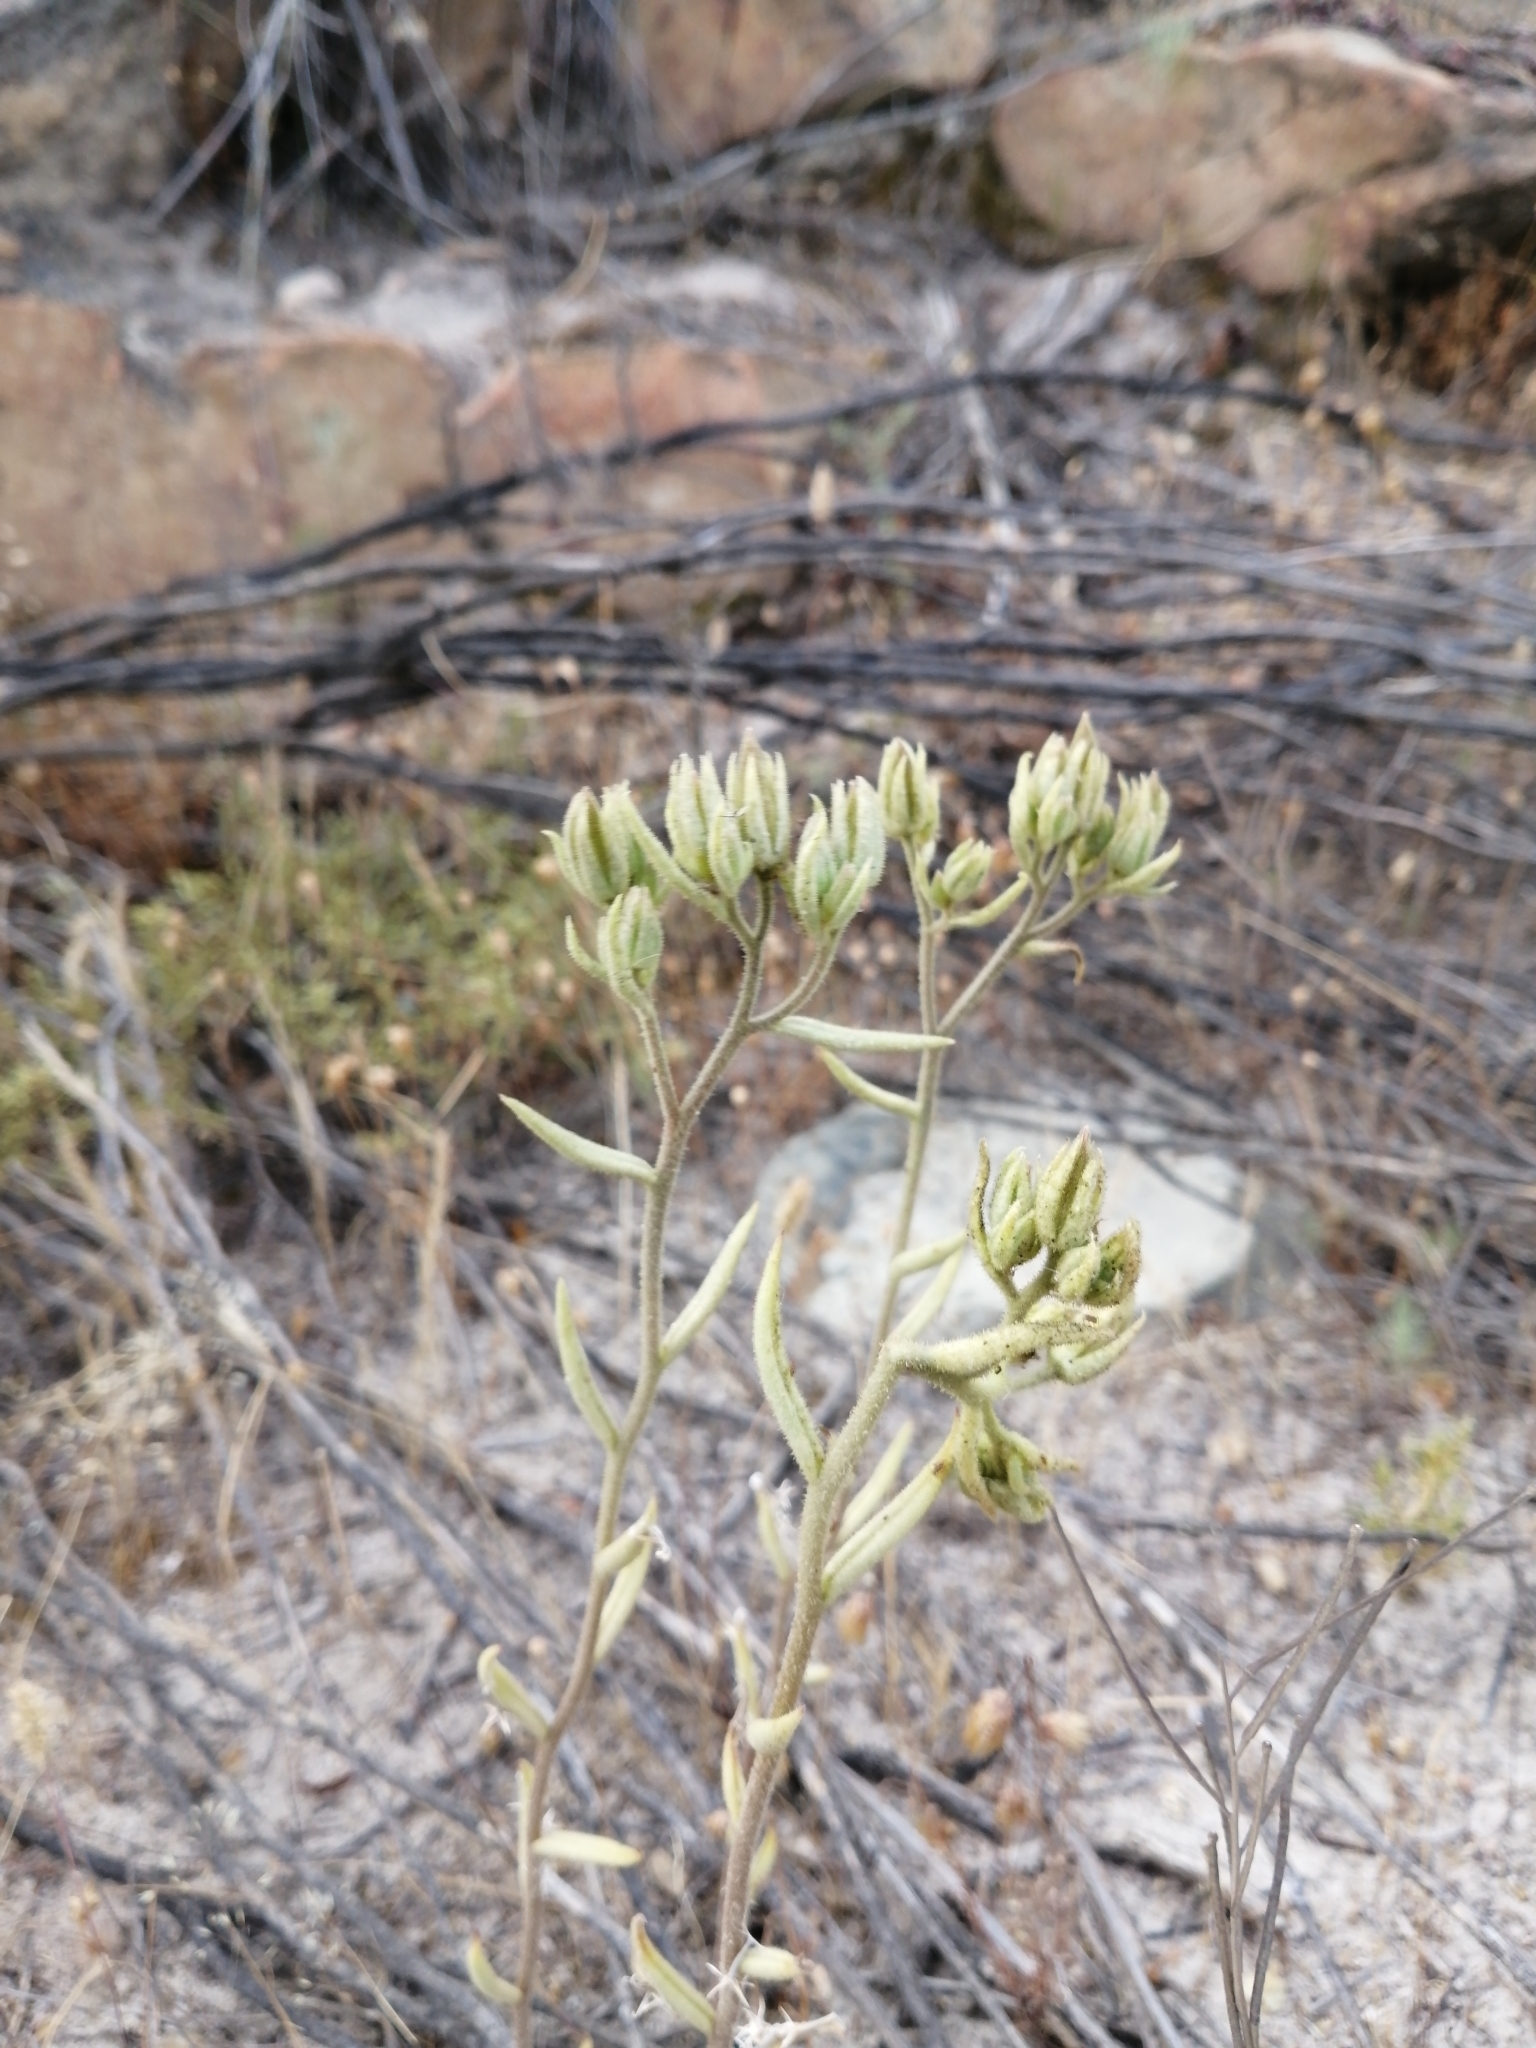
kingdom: Plantae
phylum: Tracheophyta
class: Magnoliopsida
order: Saxifragales
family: Crassulaceae
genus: Tylecodon
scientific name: Tylecodon ventricosus
